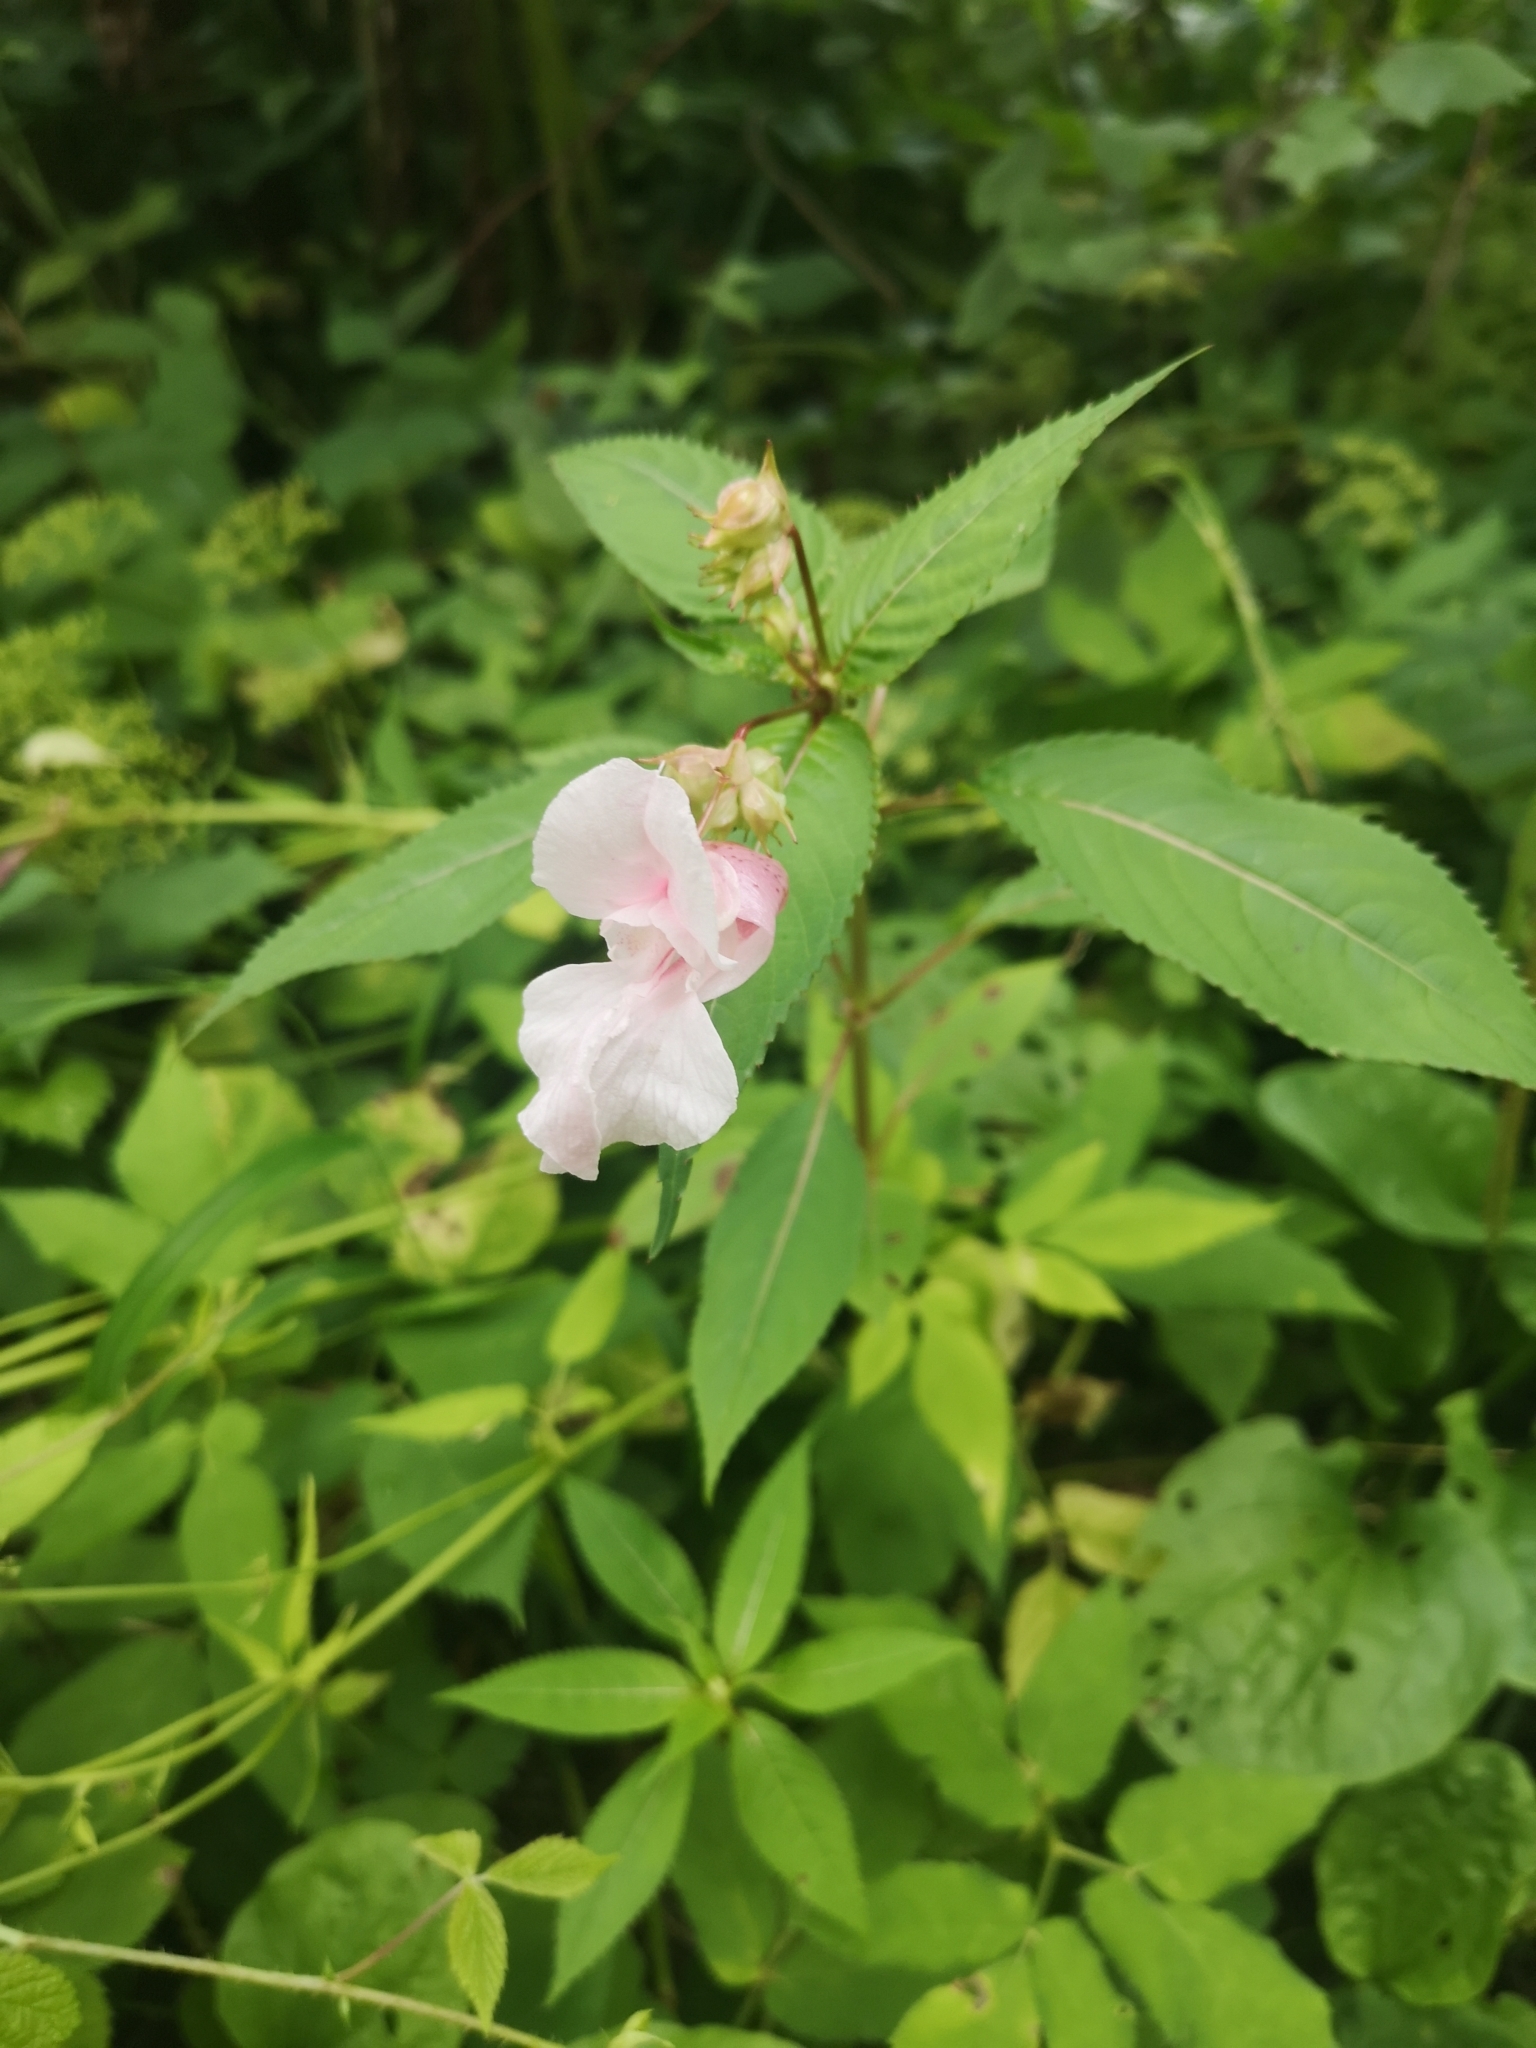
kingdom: Plantae
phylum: Tracheophyta
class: Magnoliopsida
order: Ericales
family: Balsaminaceae
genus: Impatiens
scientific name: Impatiens glandulifera
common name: Himalayan balsam
